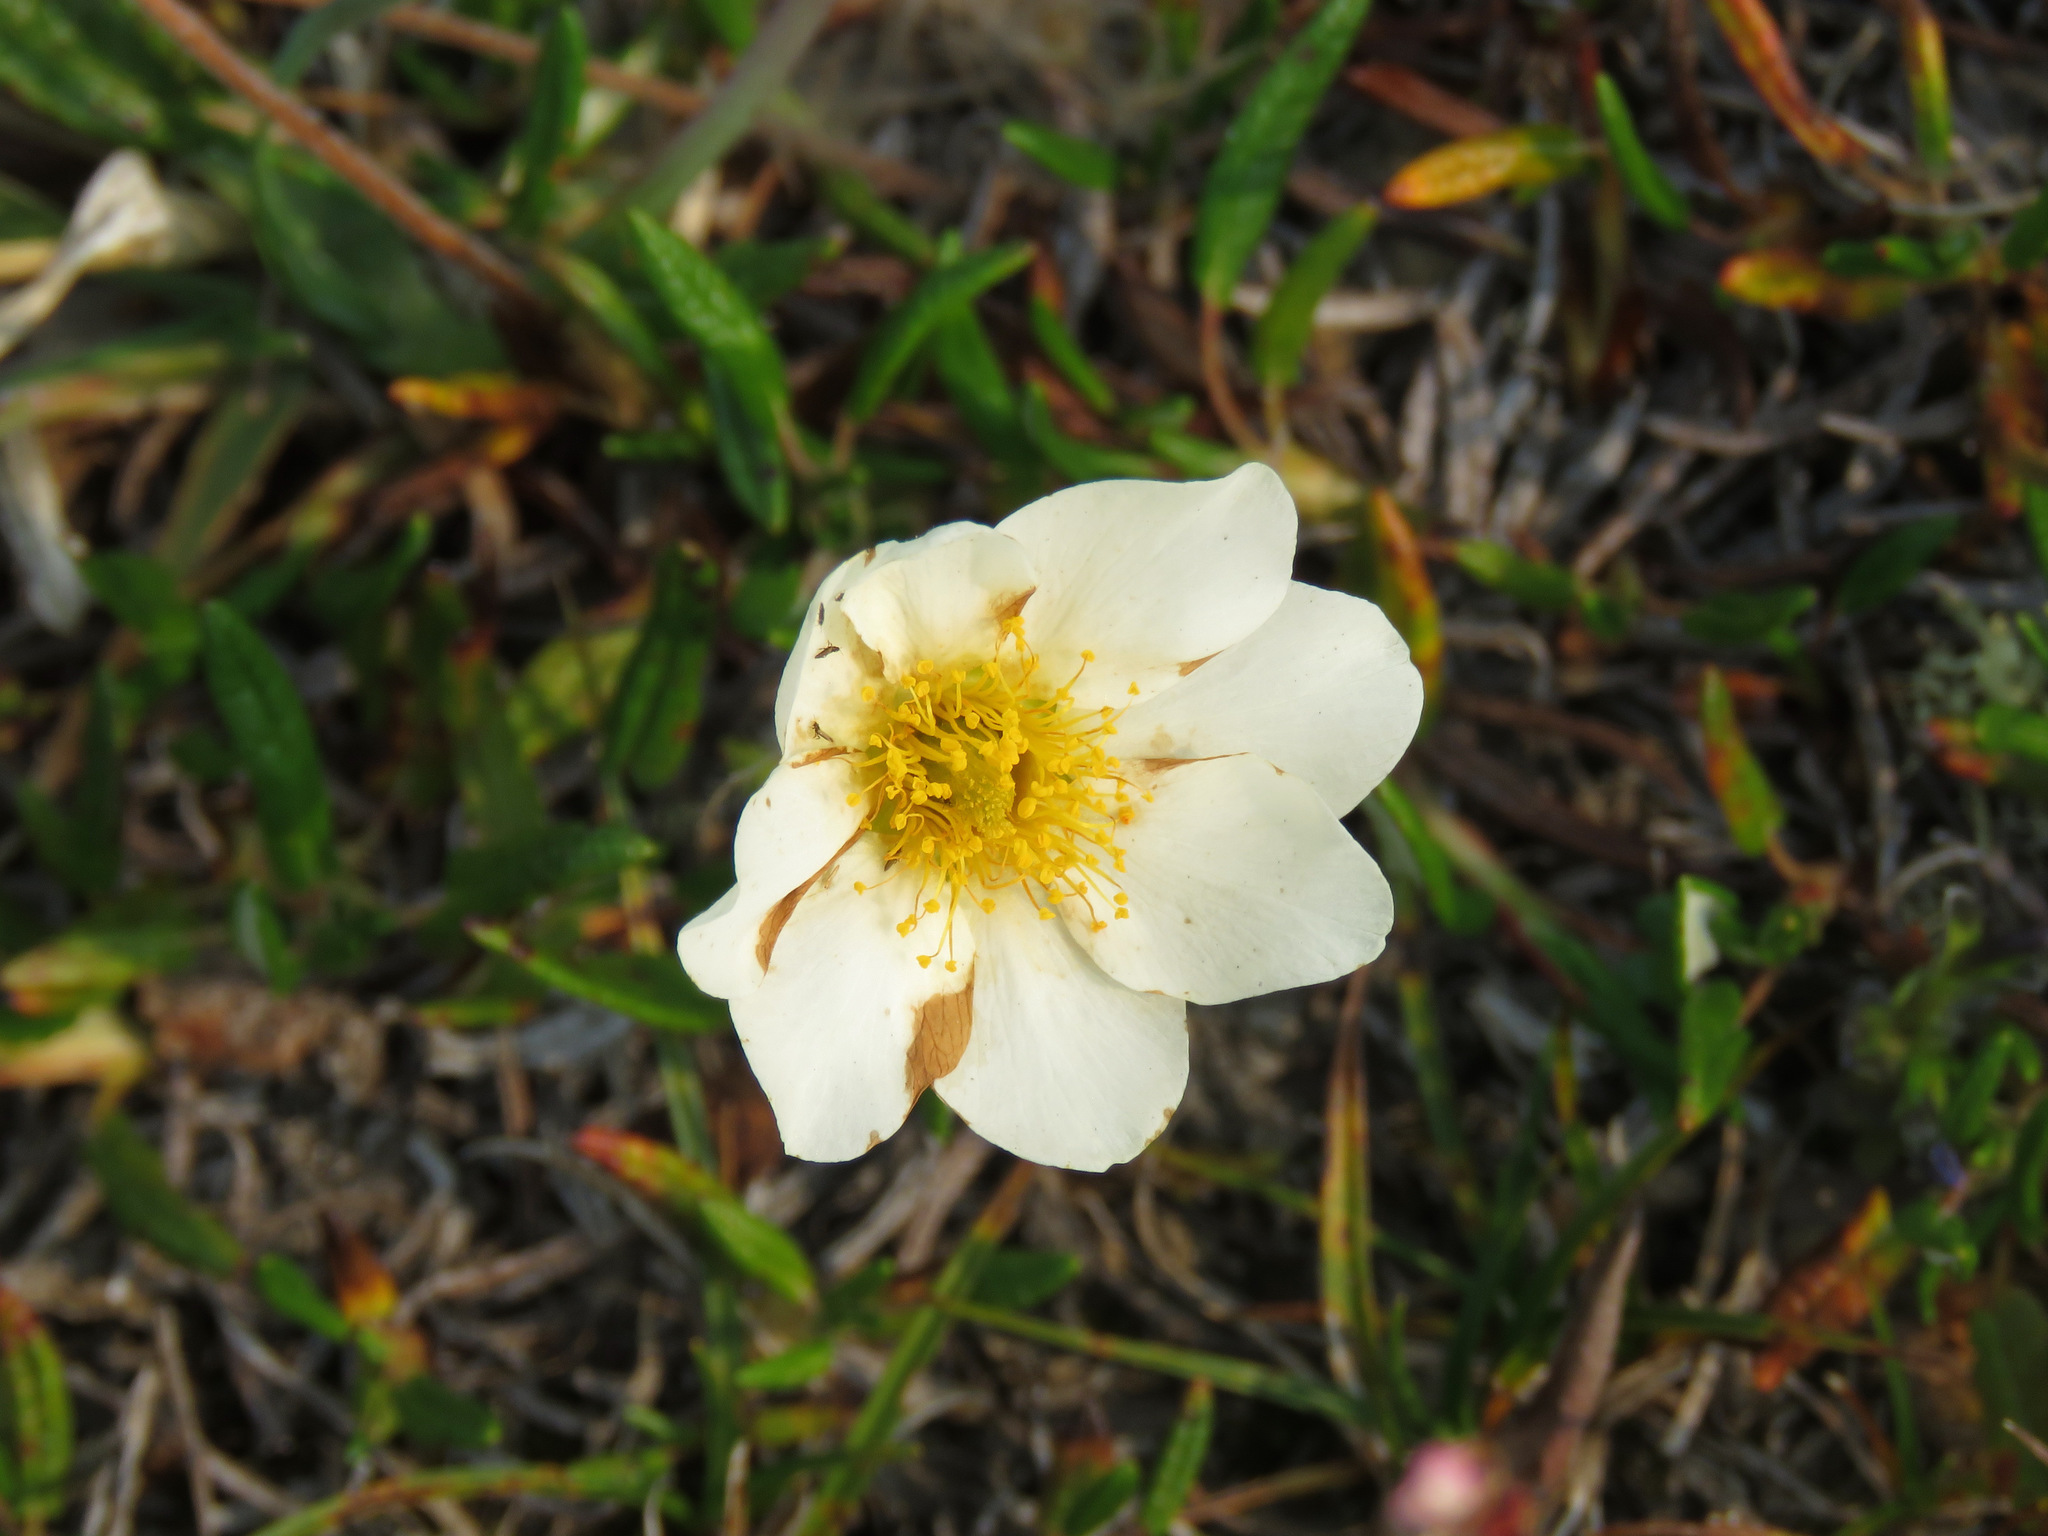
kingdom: Plantae
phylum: Tracheophyta
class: Magnoliopsida
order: Rosales
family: Rosaceae
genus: Dryas
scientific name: Dryas integrifolia
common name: Entire-leaved mountain avens
